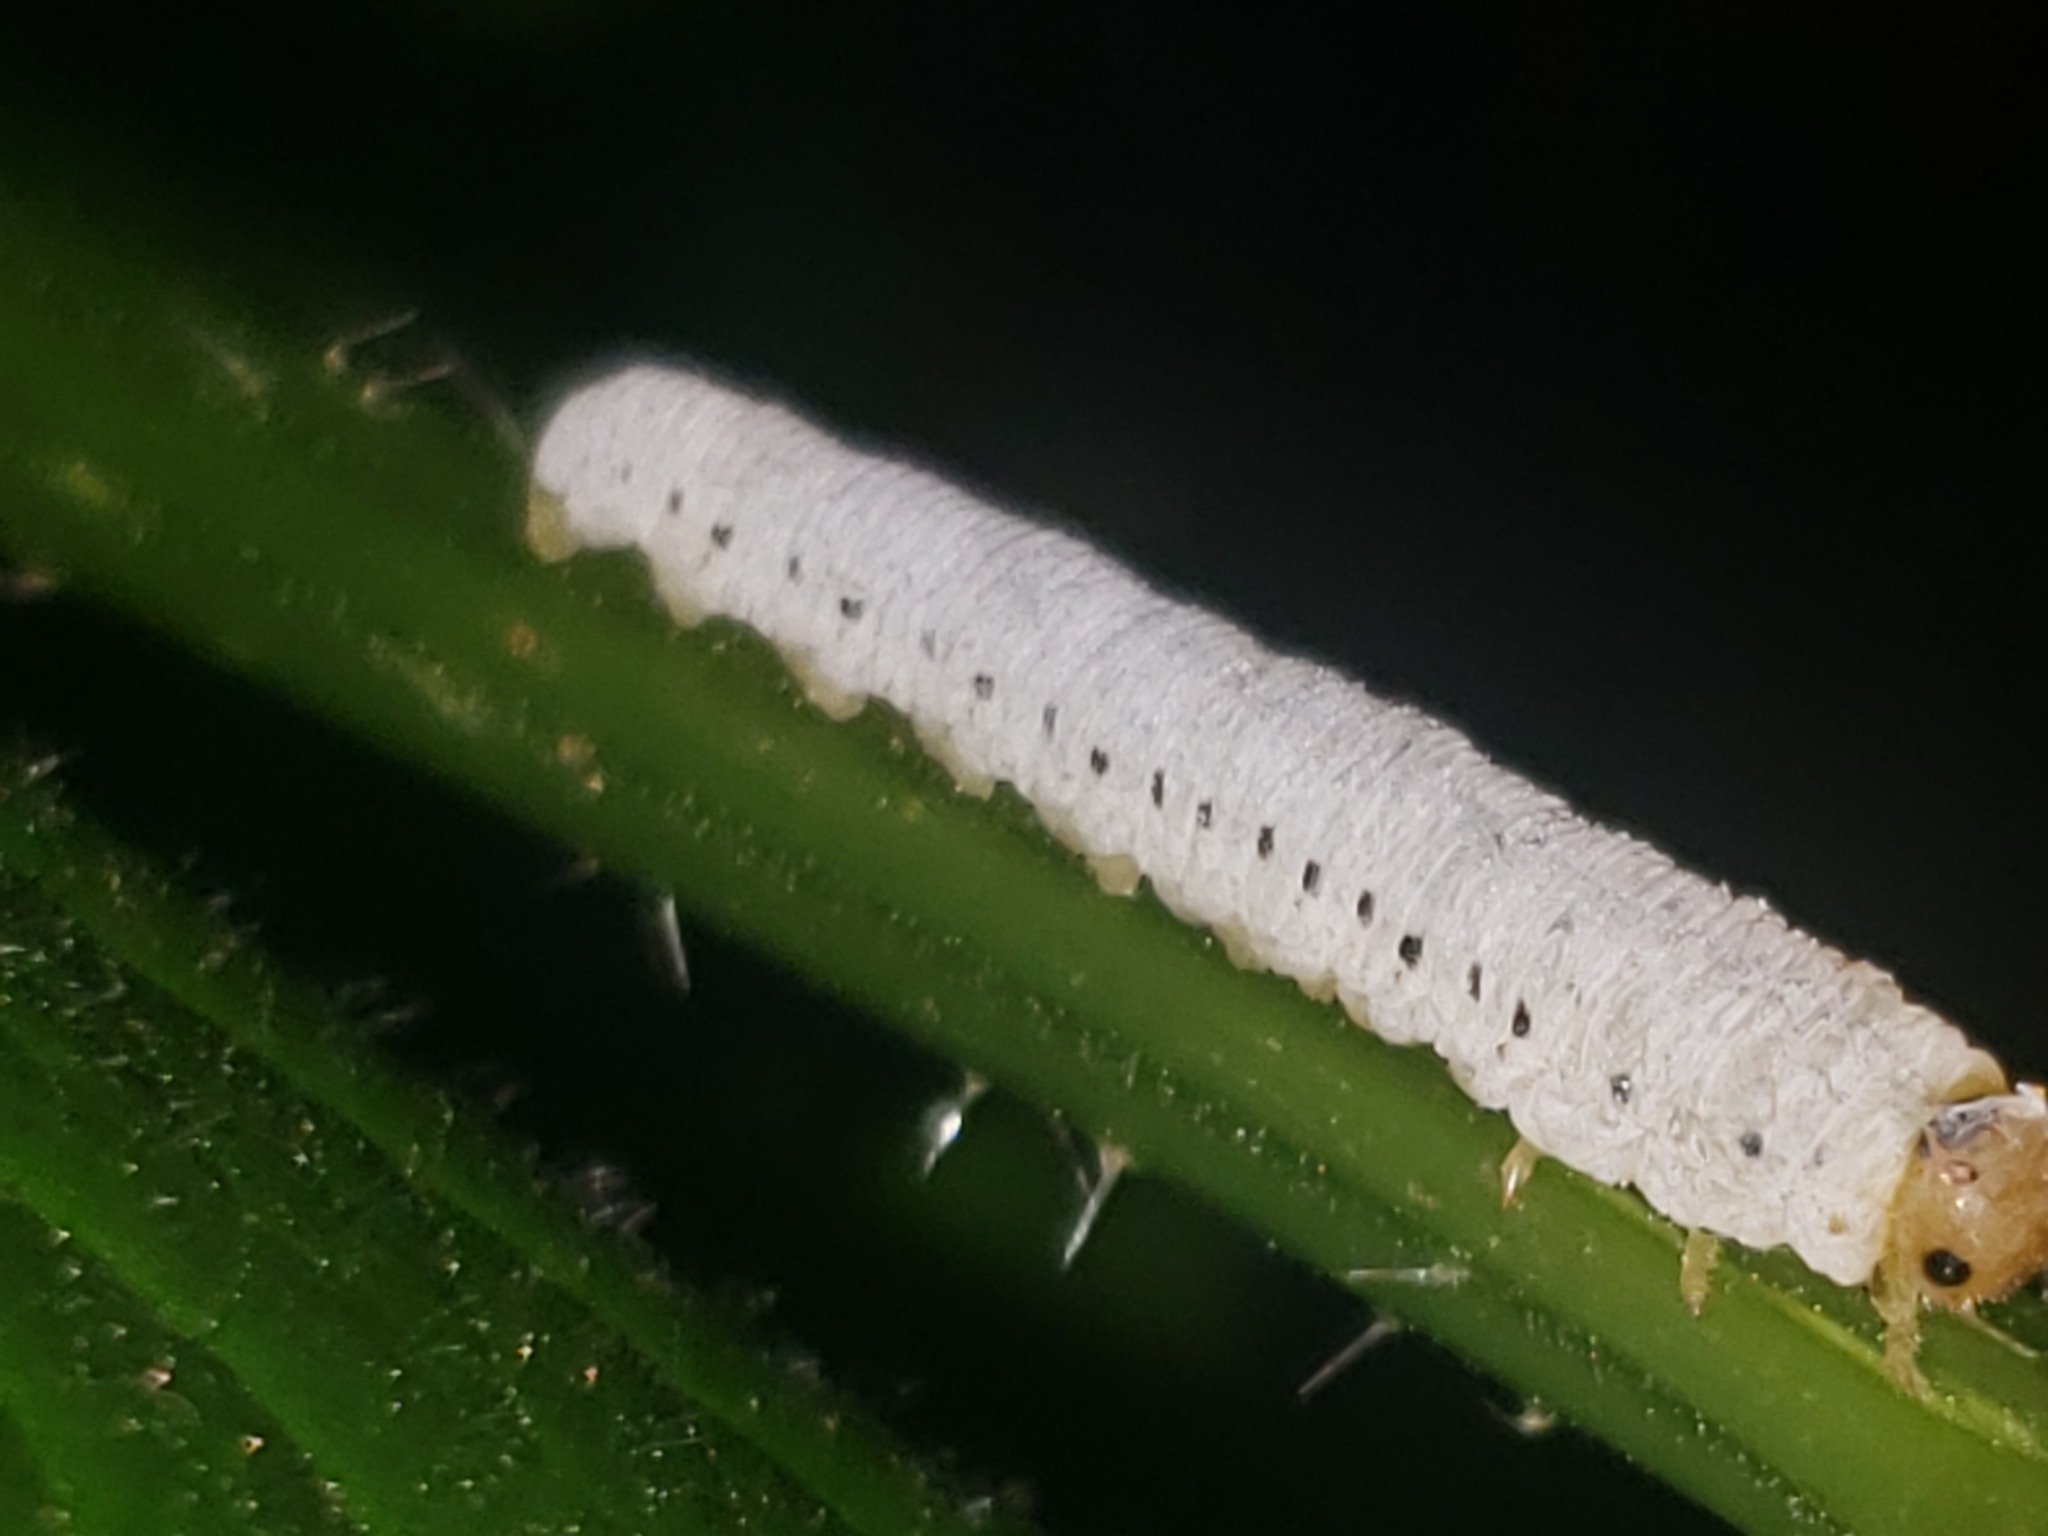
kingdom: Plantae
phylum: Tracheophyta
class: Magnoliopsida
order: Lamiales
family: Bignoniaceae
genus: Campsis
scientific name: Campsis radicans
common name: Trumpet-creeper
